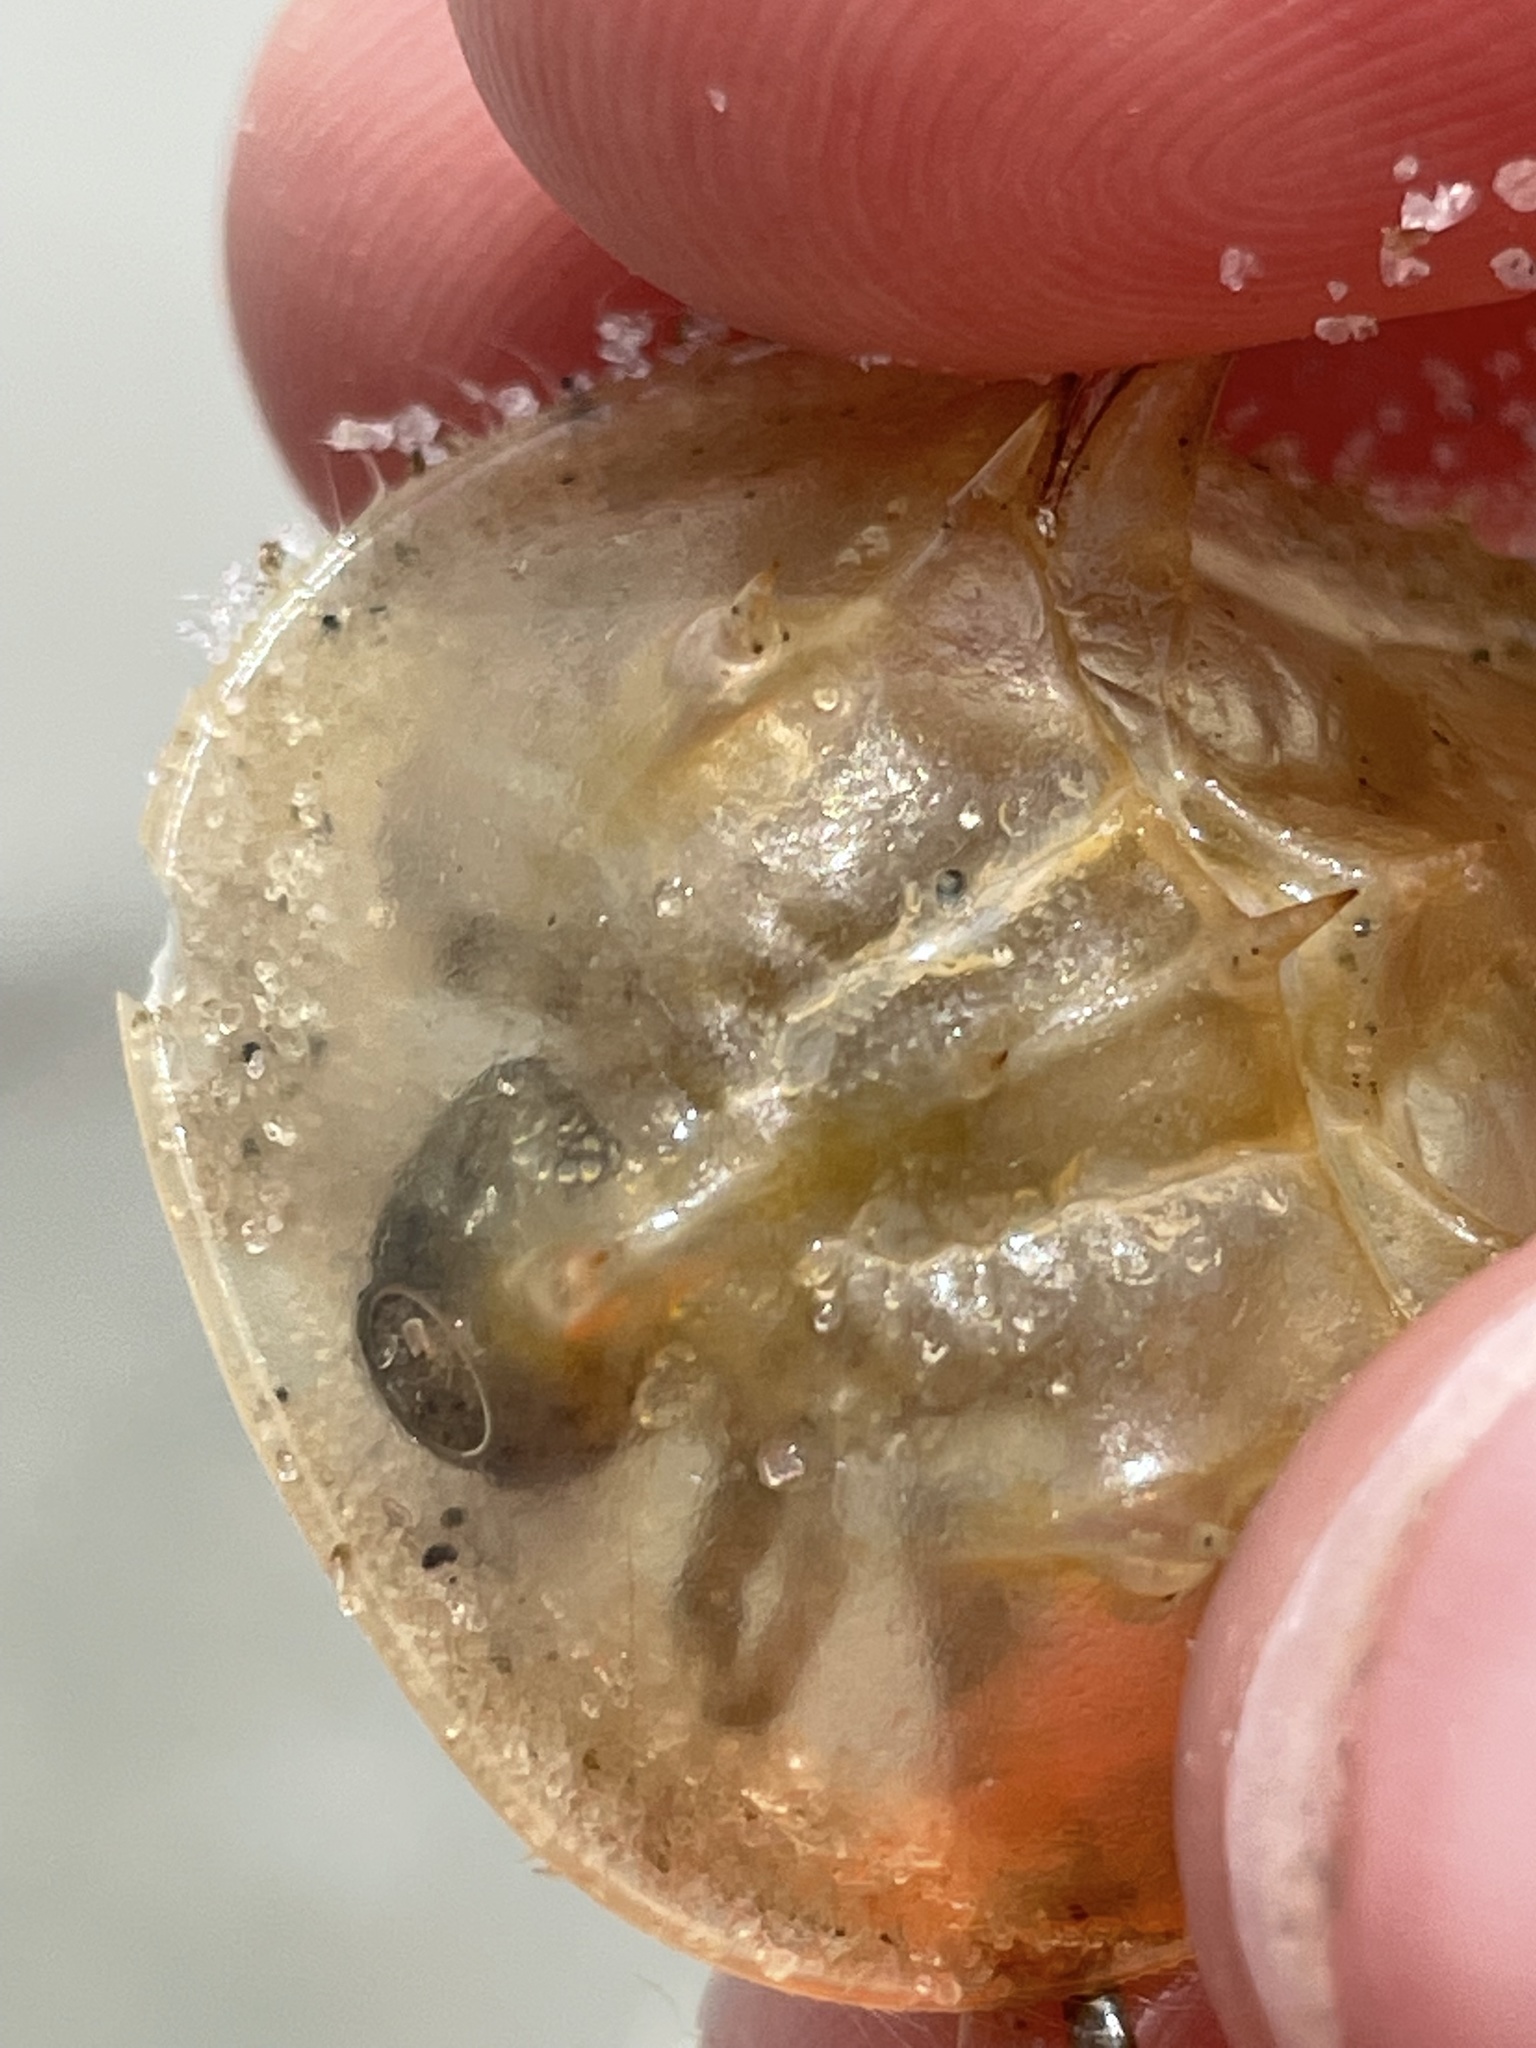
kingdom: Animalia
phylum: Arthropoda
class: Merostomata
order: Xiphosurida
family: Limulidae
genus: Limulus
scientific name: Limulus polyphemus
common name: Horseshoe crab
